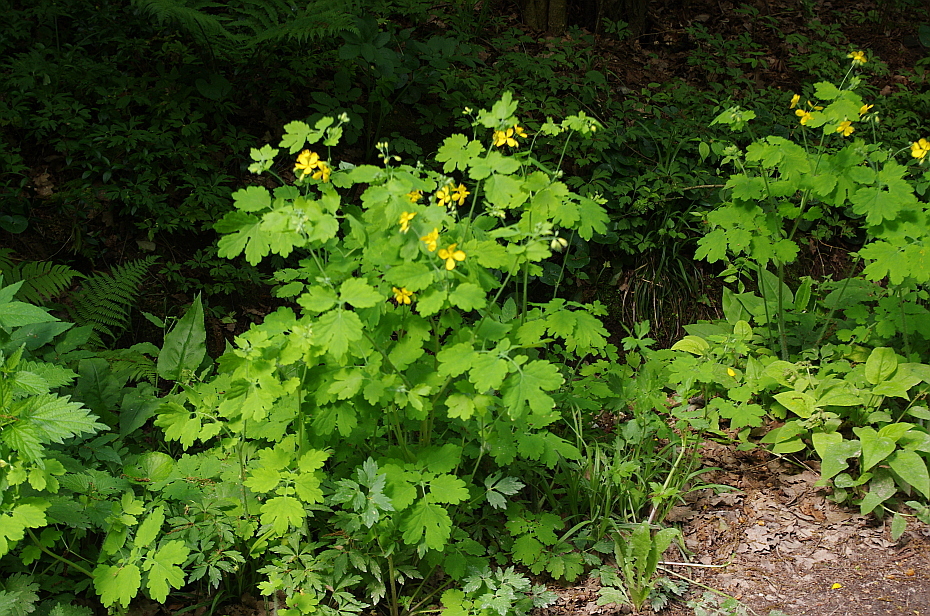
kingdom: Plantae
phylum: Tracheophyta
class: Magnoliopsida
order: Ranunculales
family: Papaveraceae
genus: Chelidonium
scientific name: Chelidonium majus
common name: Greater celandine
